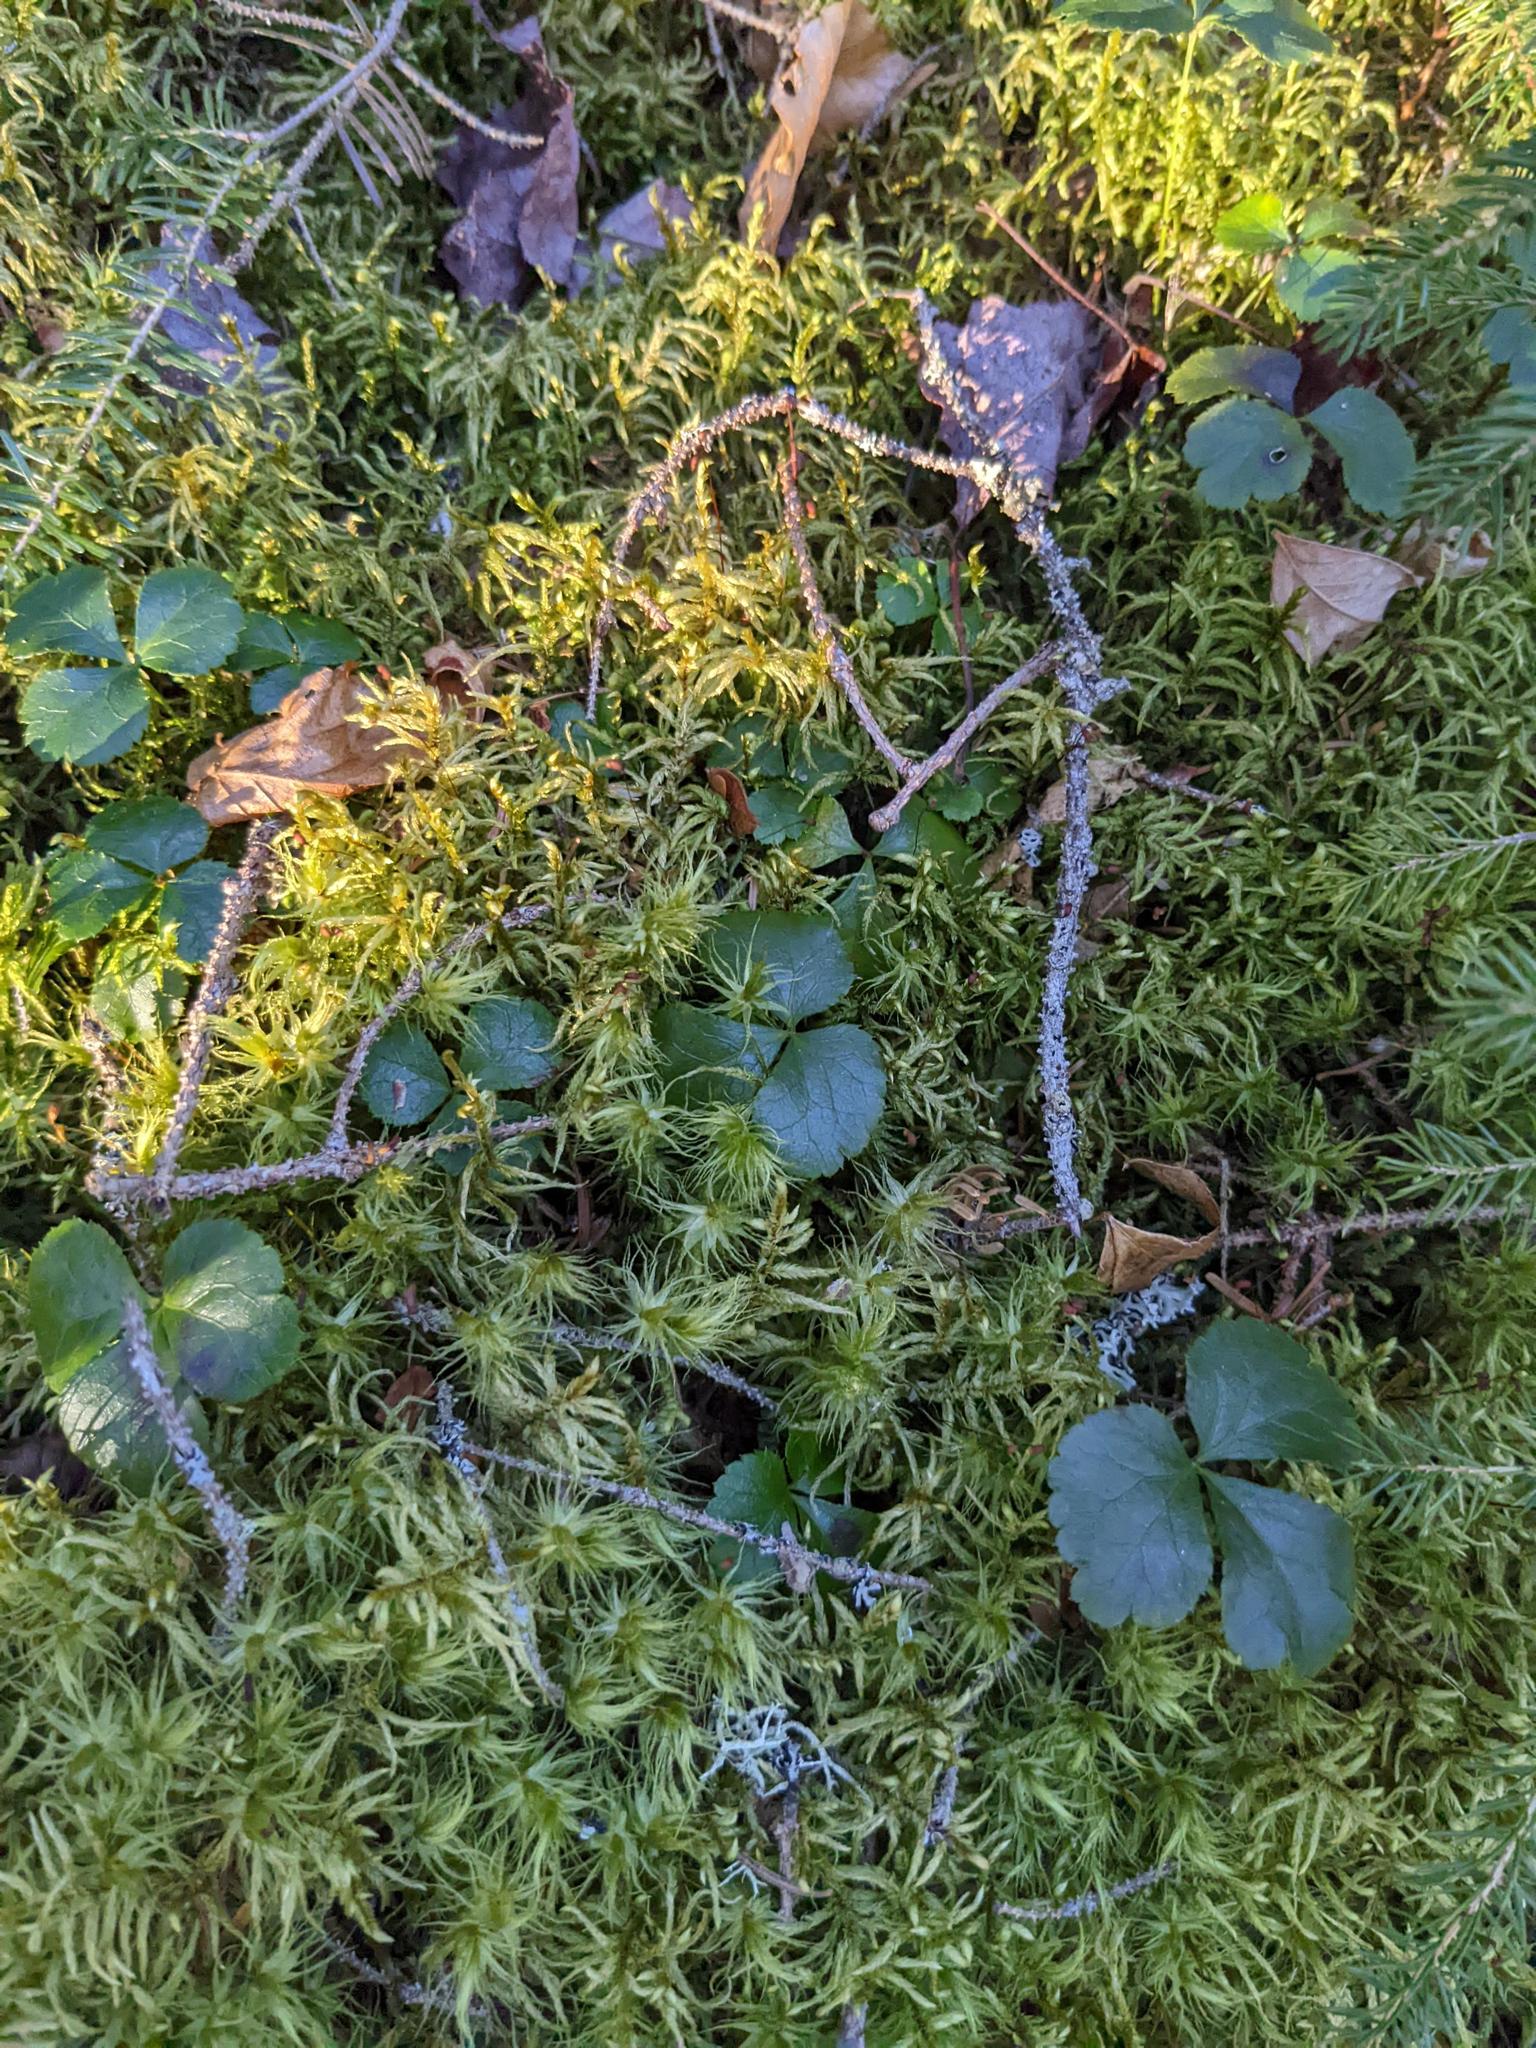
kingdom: Plantae
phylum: Tracheophyta
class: Magnoliopsida
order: Ranunculales
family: Ranunculaceae
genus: Coptis
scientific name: Coptis trifolia
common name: Canker-root
